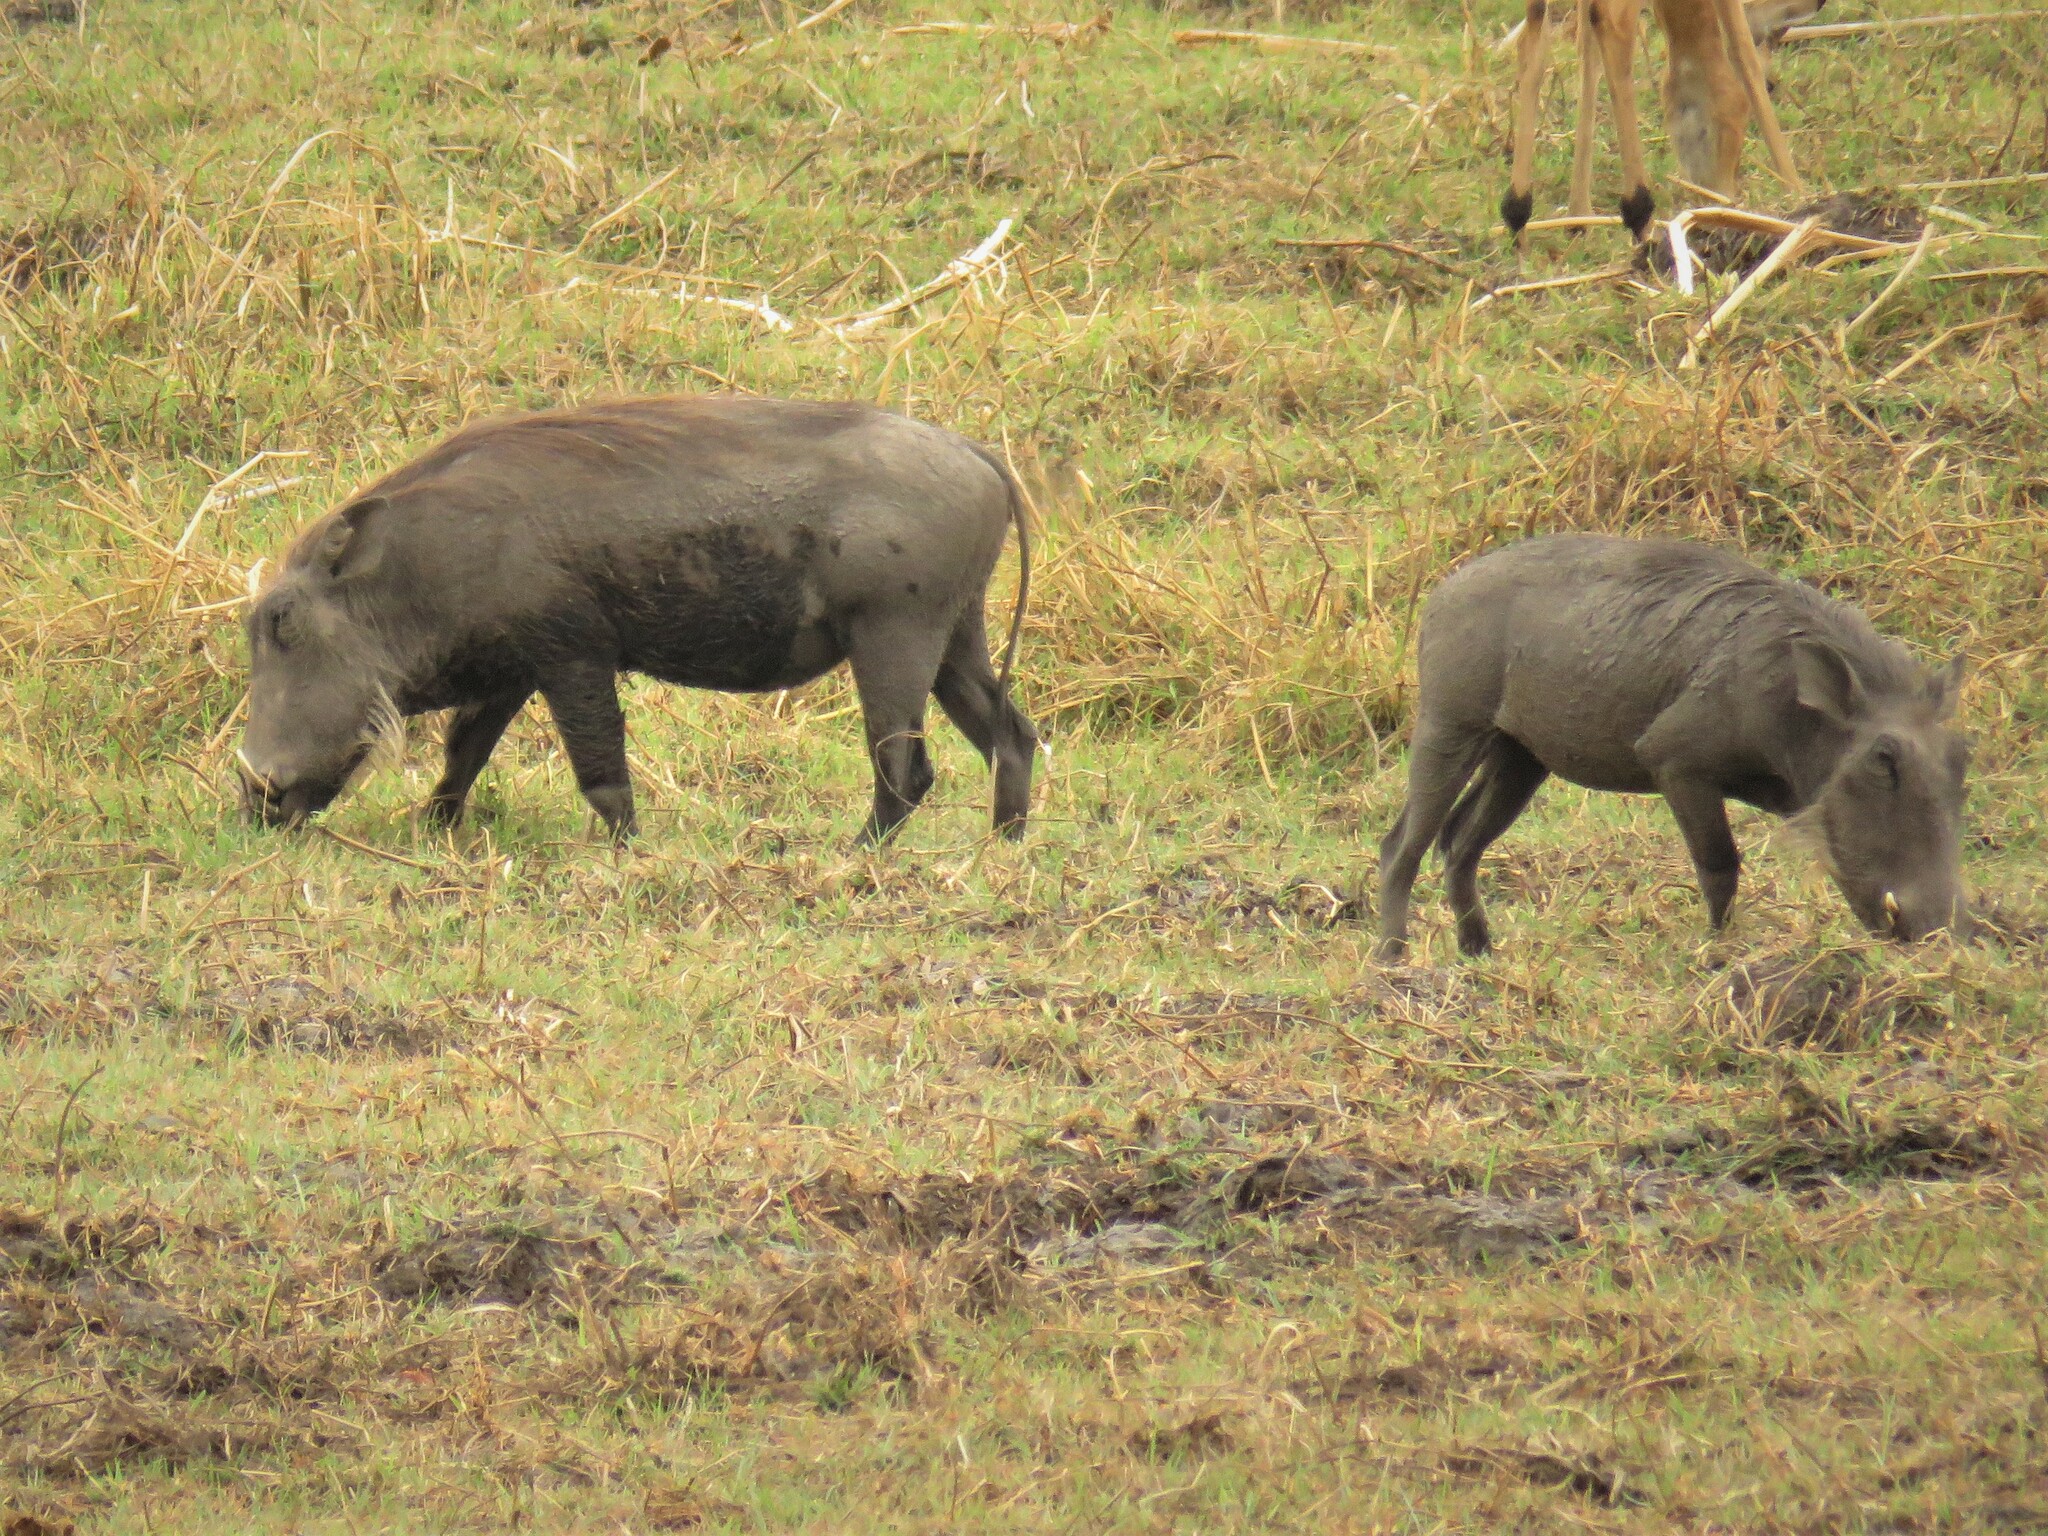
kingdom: Animalia
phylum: Chordata
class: Mammalia
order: Artiodactyla
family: Suidae
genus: Phacochoerus
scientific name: Phacochoerus africanus
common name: Common warthog
